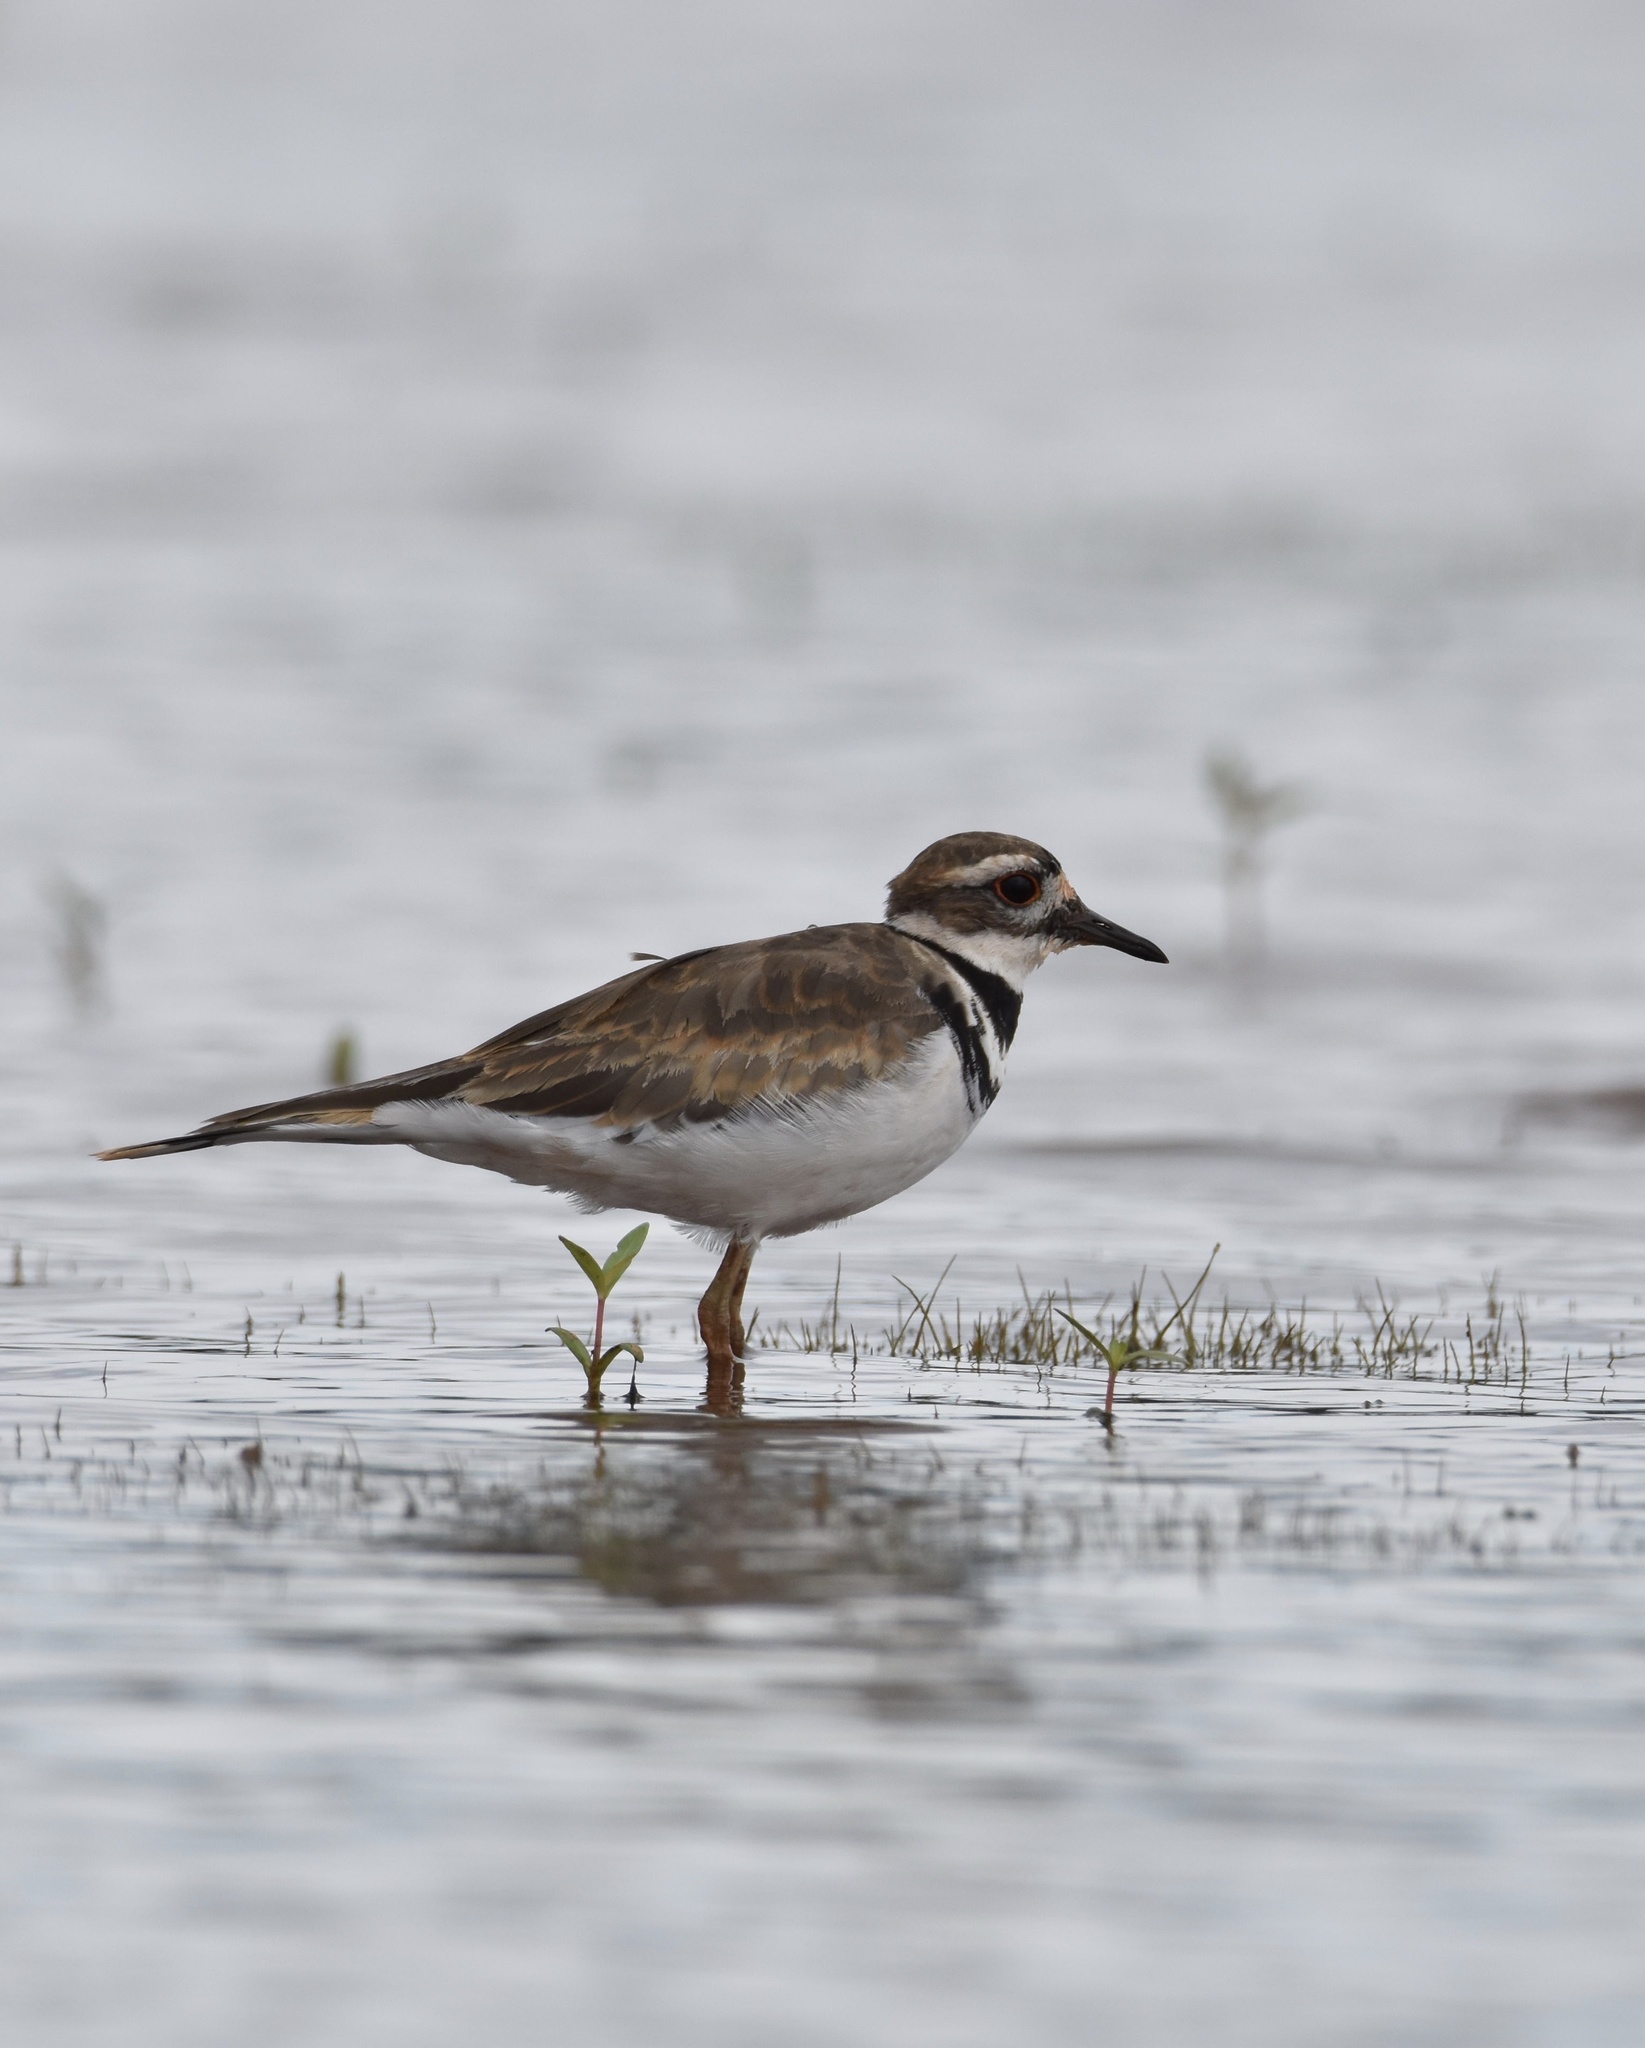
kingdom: Animalia
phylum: Chordata
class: Aves
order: Charadriiformes
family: Charadriidae
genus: Charadrius
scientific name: Charadrius vociferus
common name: Killdeer
